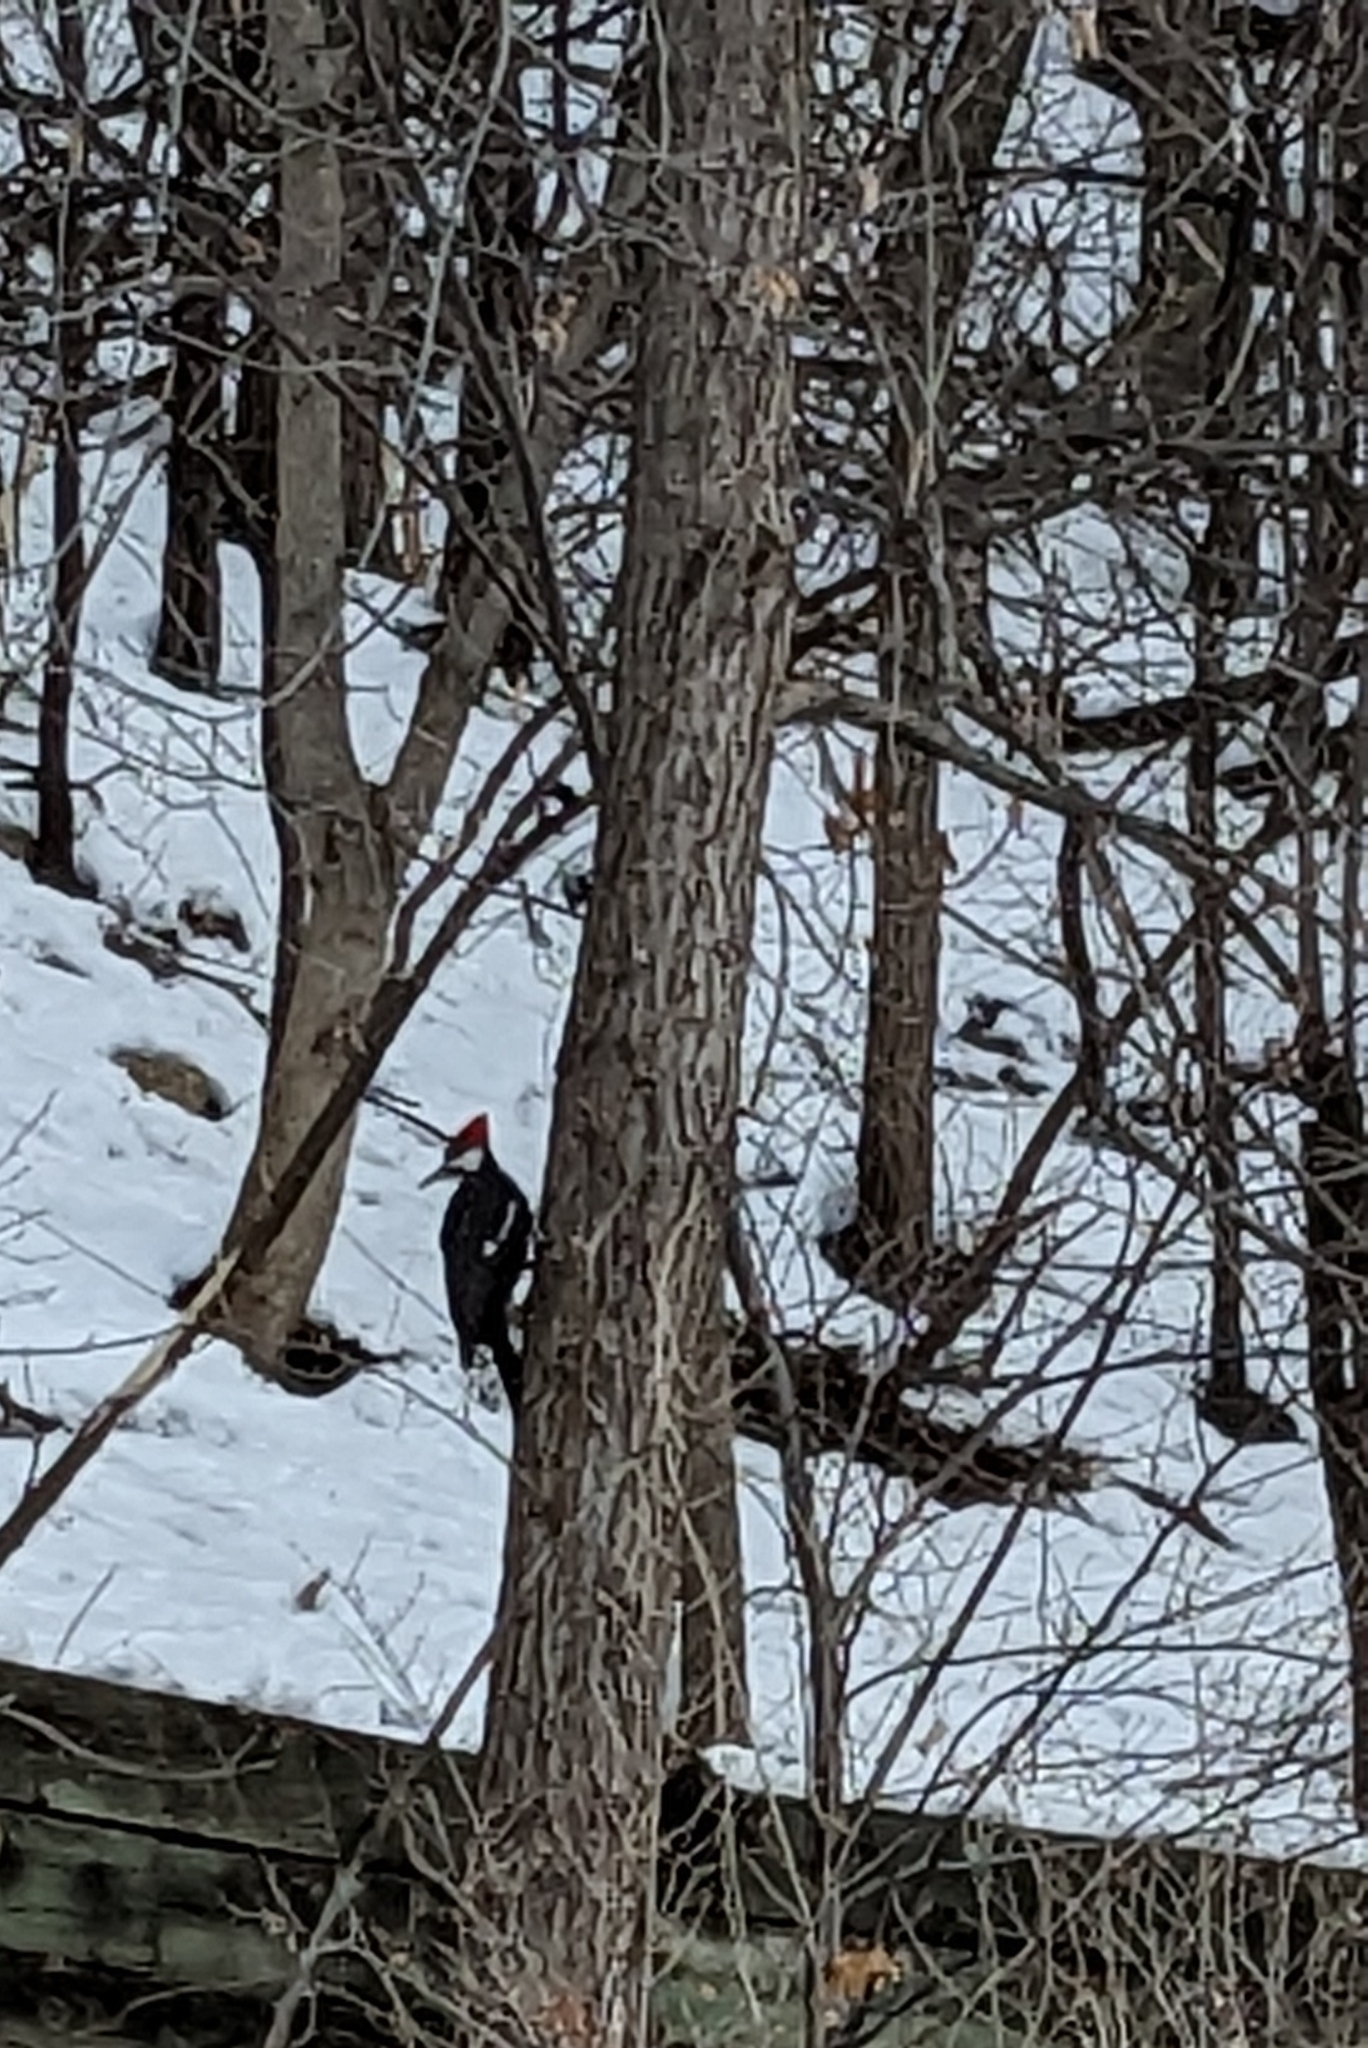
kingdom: Animalia
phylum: Chordata
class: Aves
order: Piciformes
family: Picidae
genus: Dryocopus
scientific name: Dryocopus pileatus
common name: Pileated woodpecker
